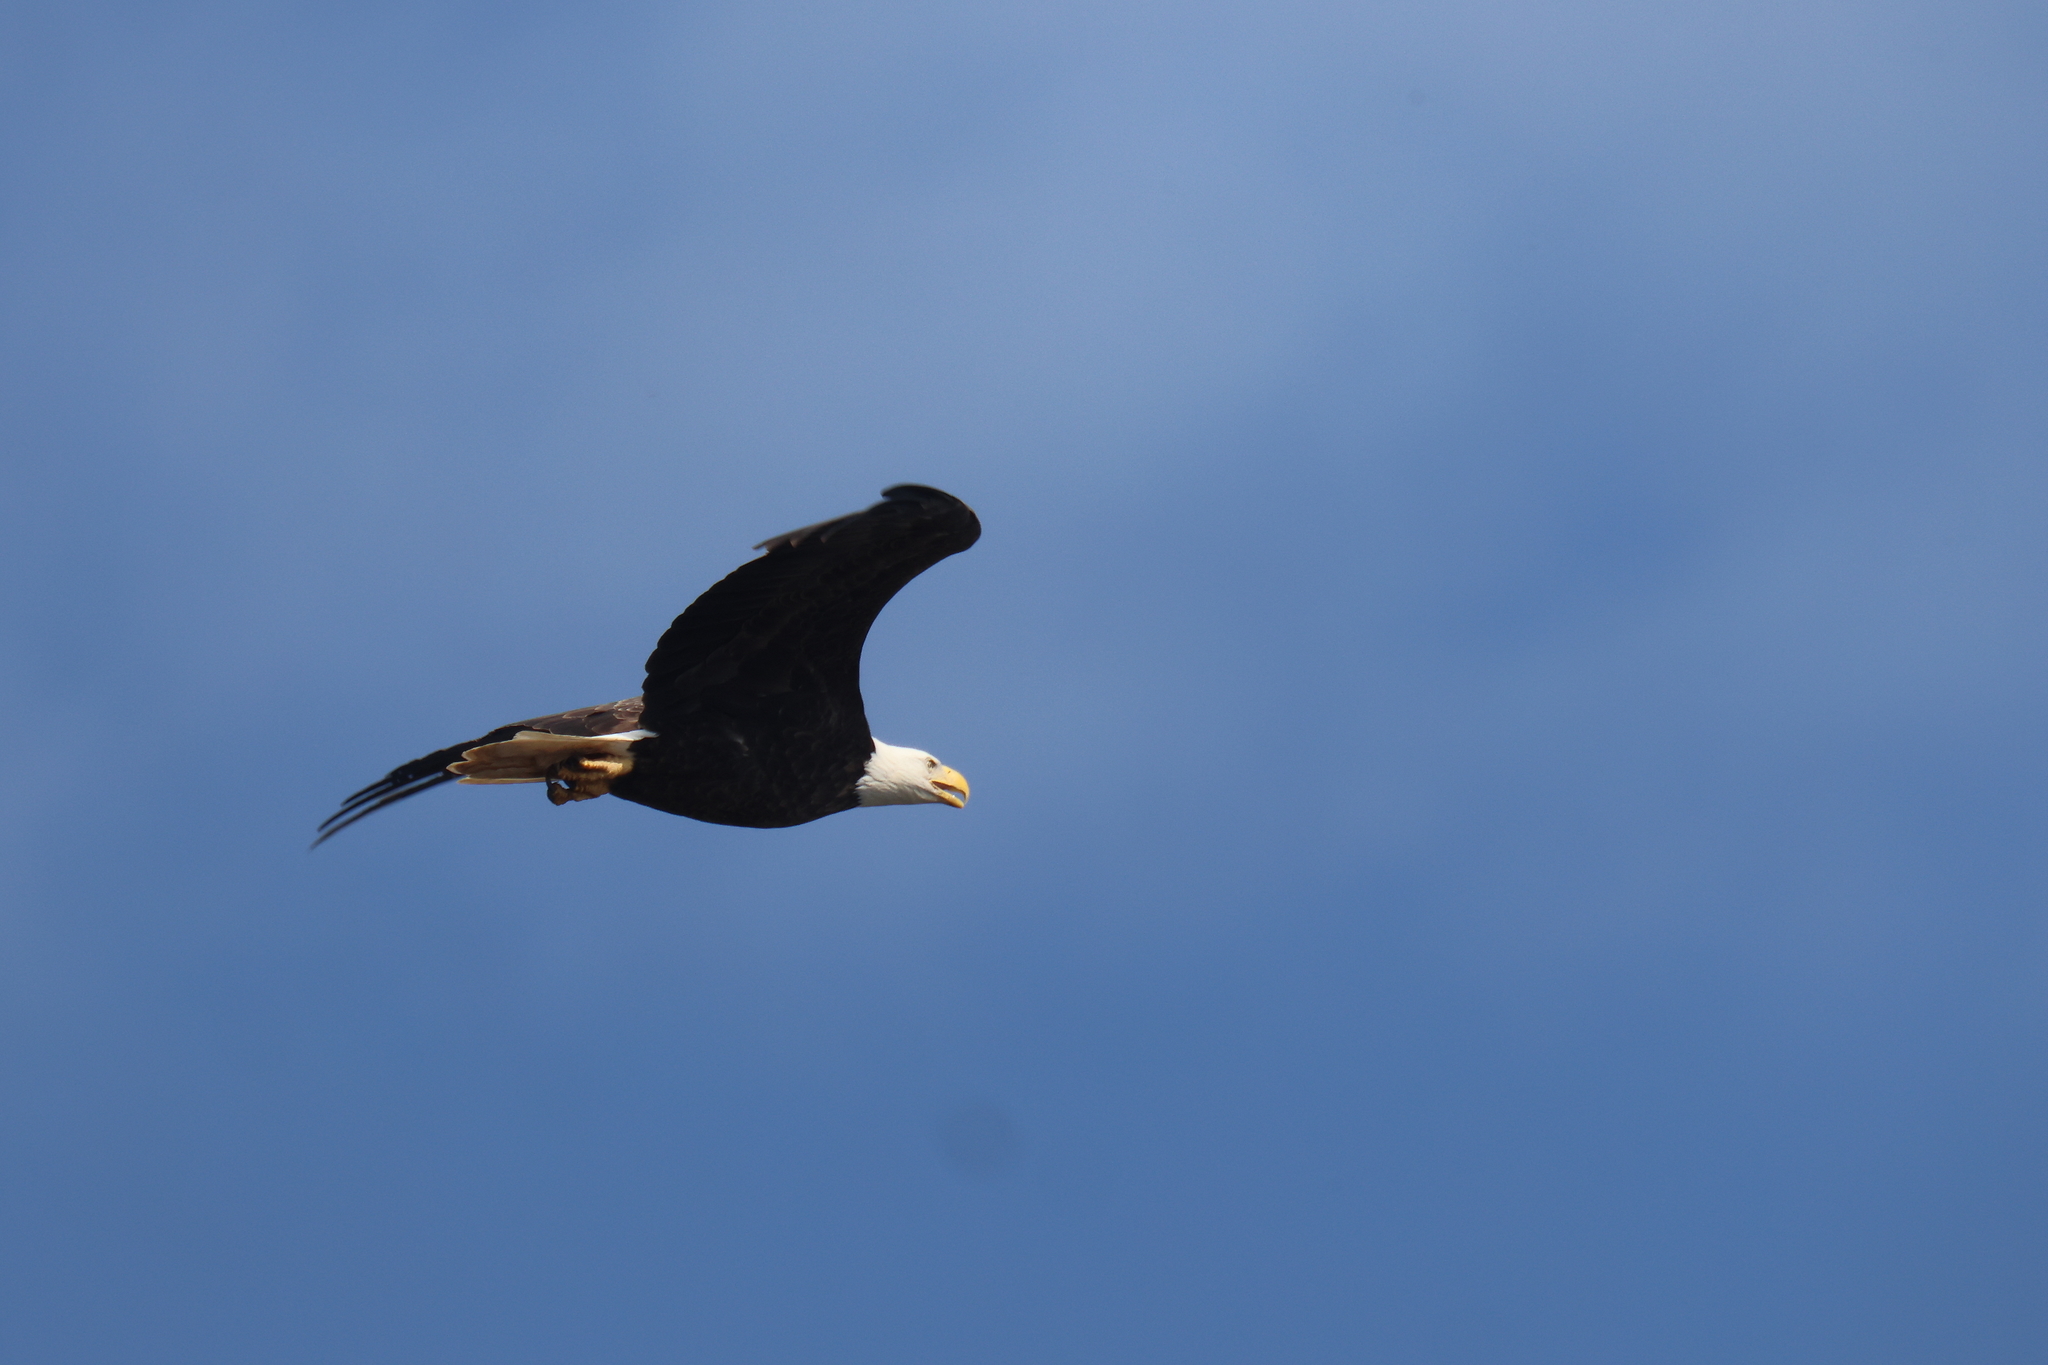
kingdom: Animalia
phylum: Chordata
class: Aves
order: Accipitriformes
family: Accipitridae
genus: Haliaeetus
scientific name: Haliaeetus leucocephalus
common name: Bald eagle
